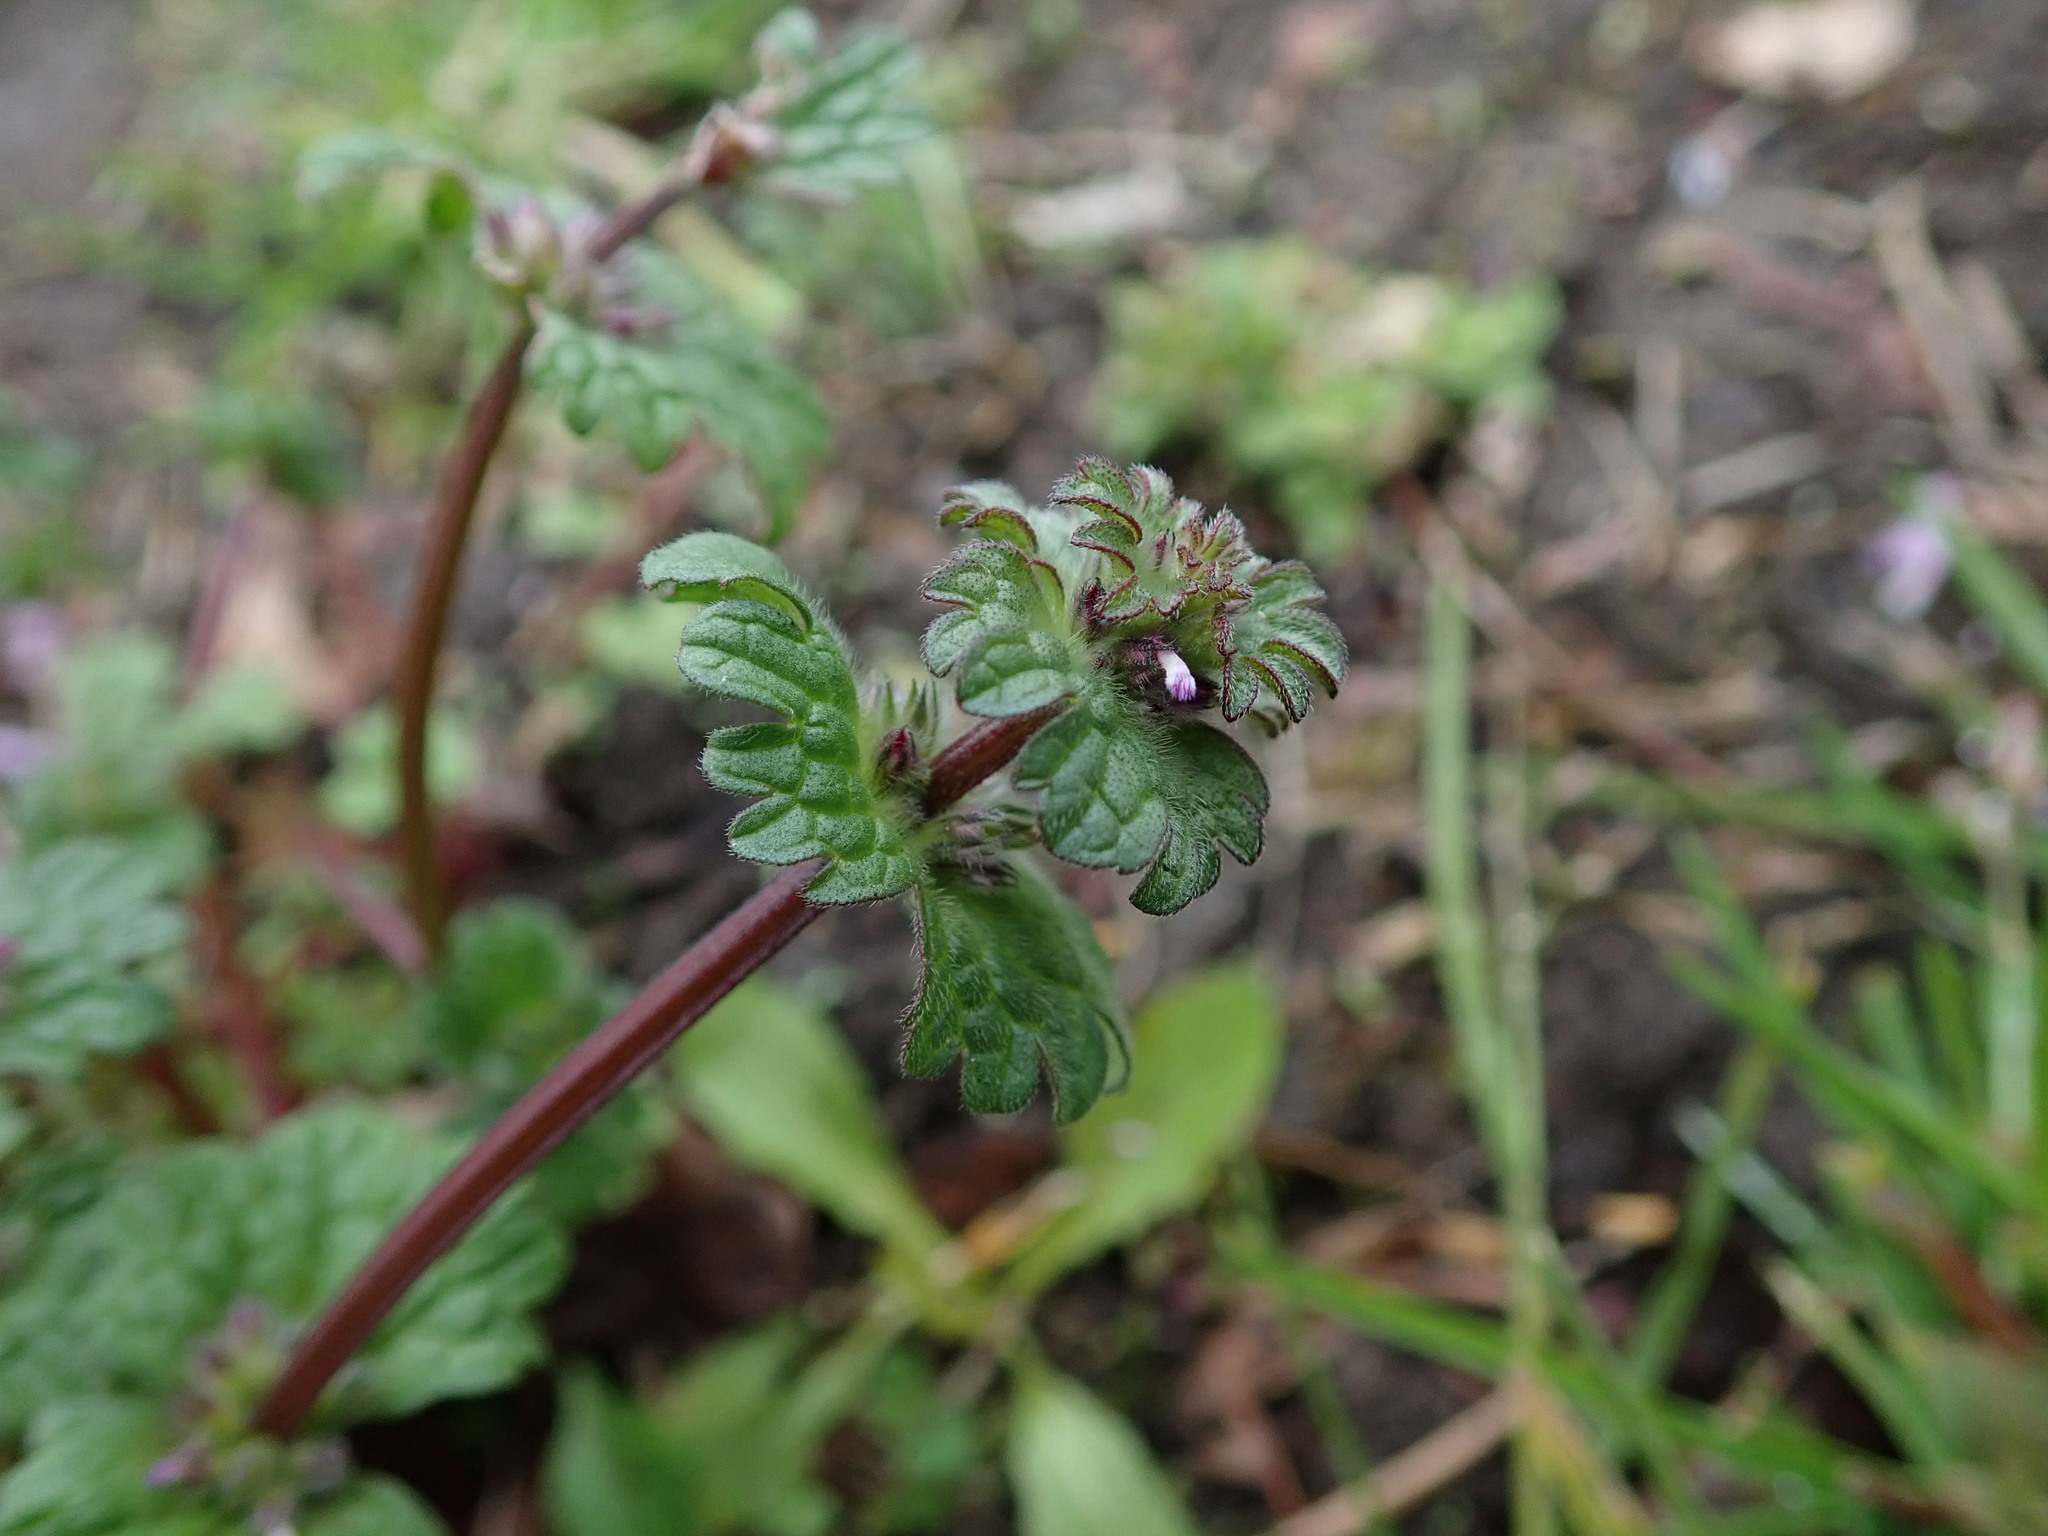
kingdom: Plantae
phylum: Tracheophyta
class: Magnoliopsida
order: Lamiales
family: Lamiaceae
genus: Lamium
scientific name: Lamium amplexicaule
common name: Henbit dead-nettle
